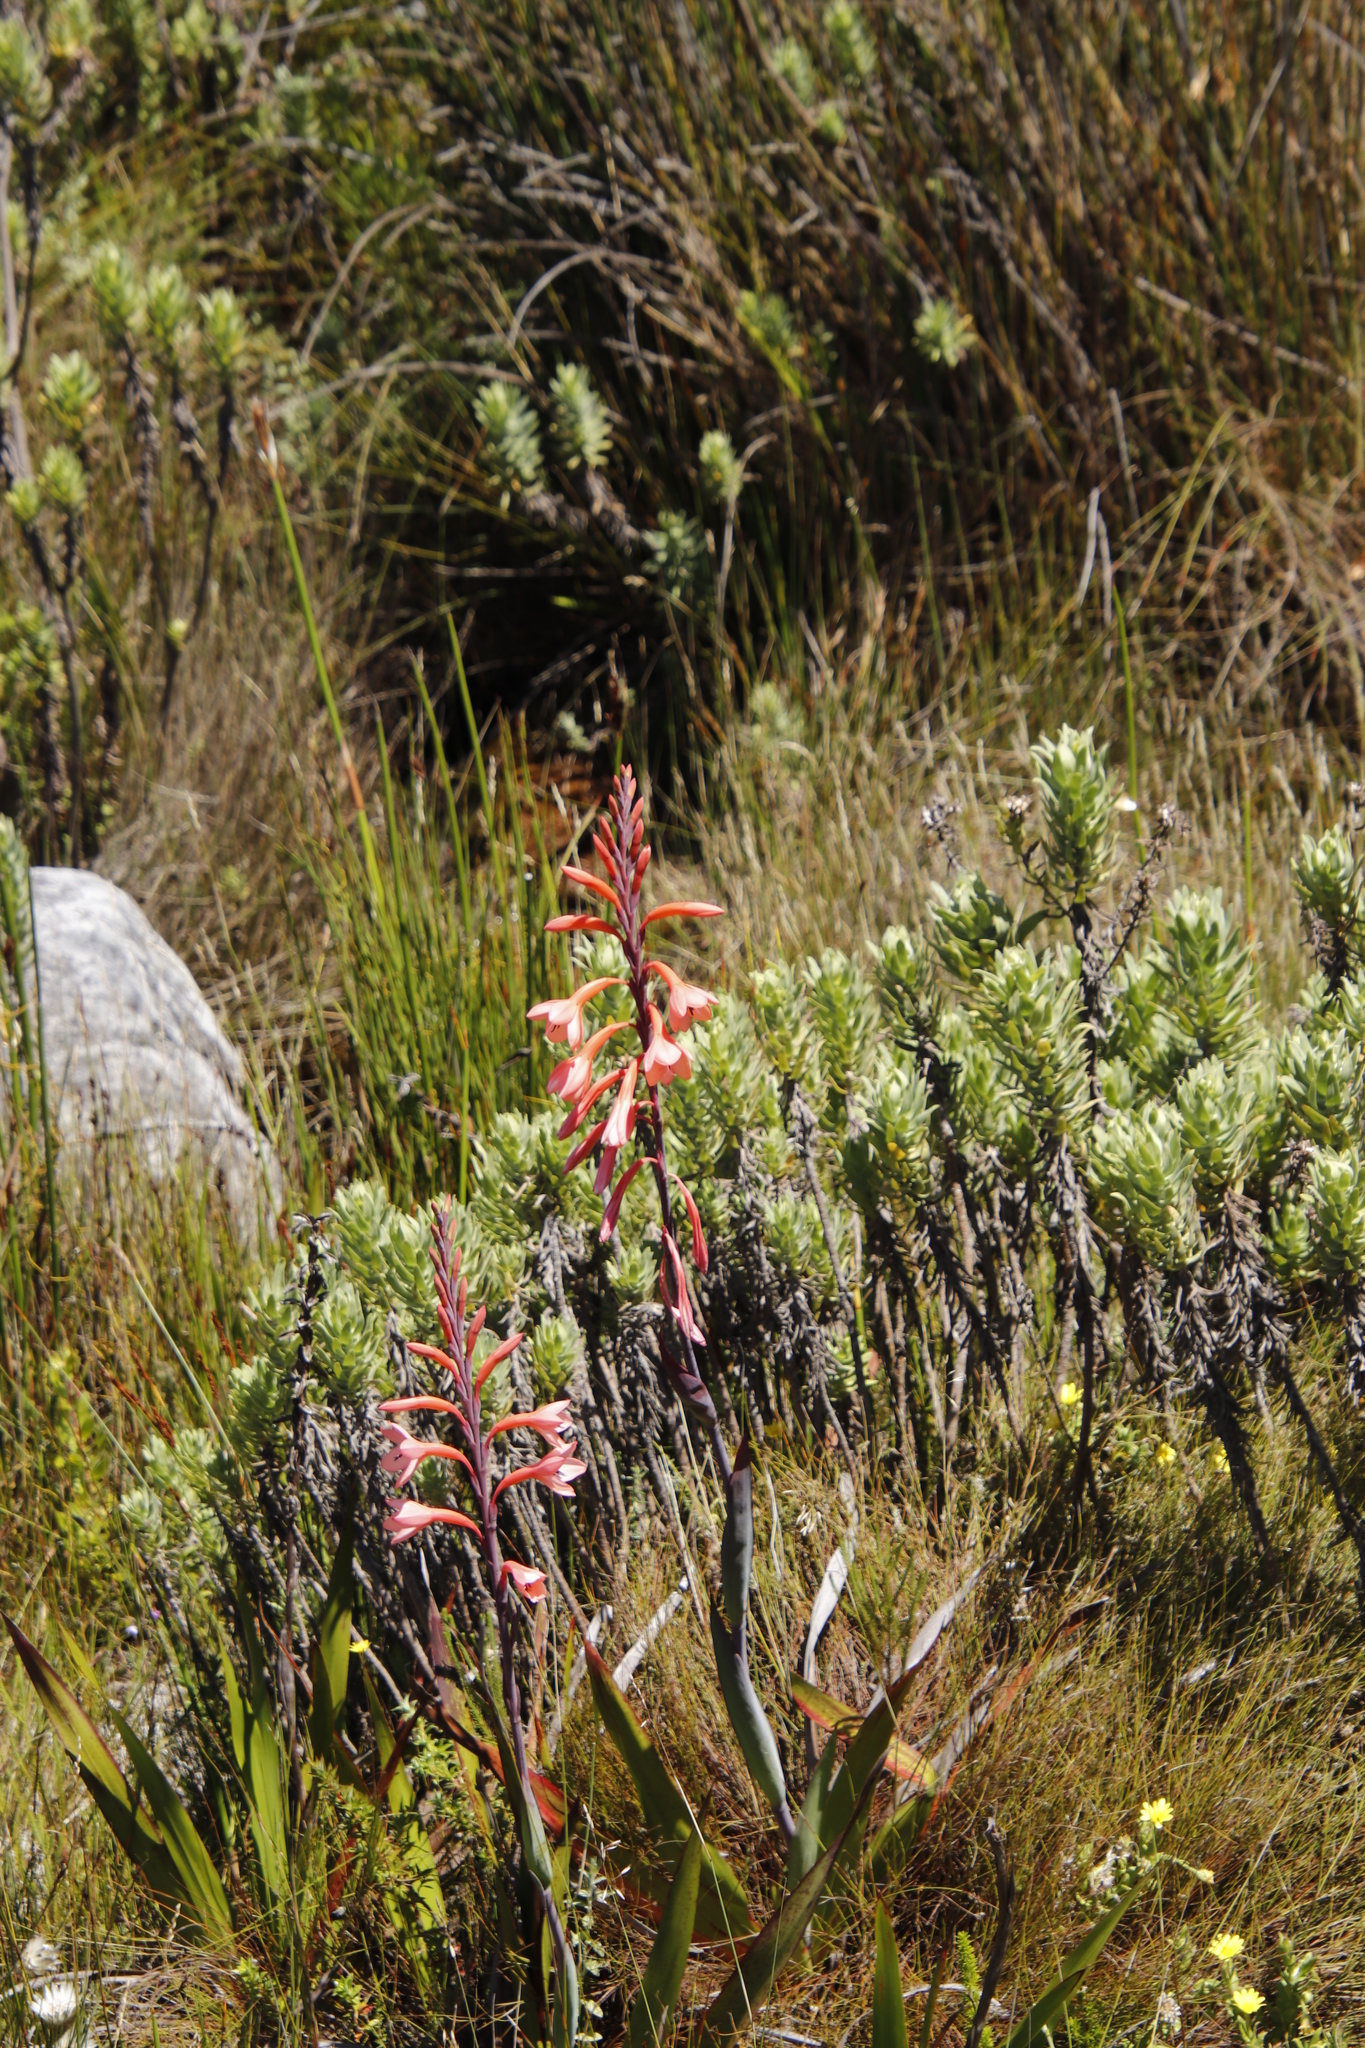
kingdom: Plantae
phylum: Tracheophyta
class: Liliopsida
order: Asparagales
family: Iridaceae
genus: Watsonia
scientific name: Watsonia tabularis
